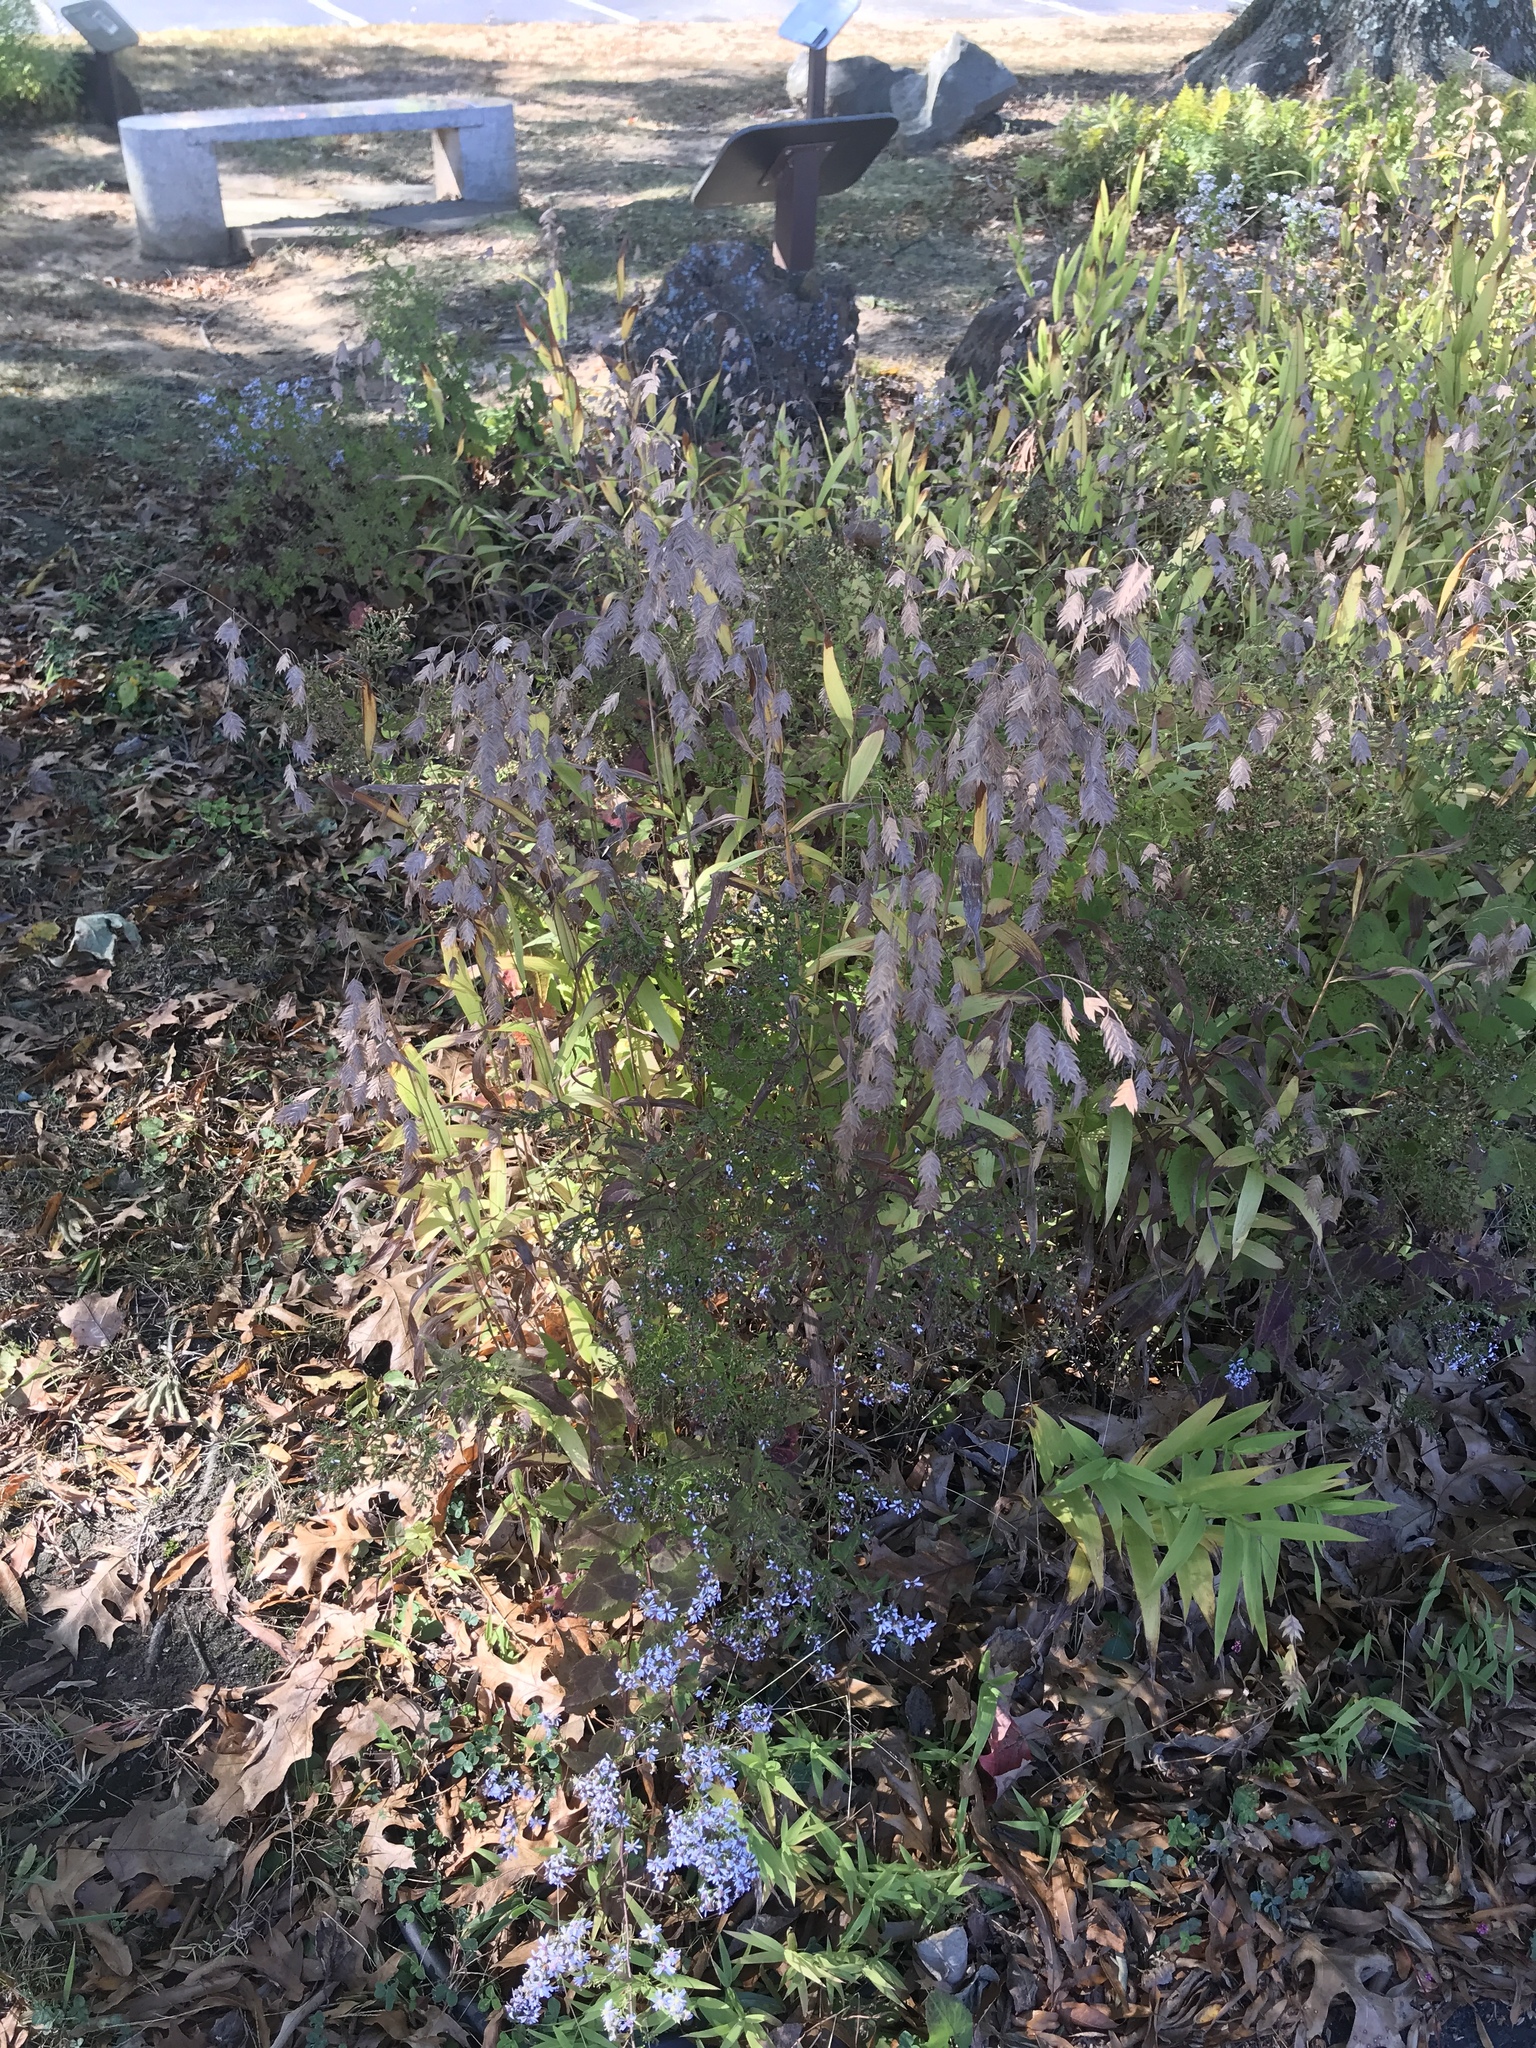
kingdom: Plantae
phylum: Tracheophyta
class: Liliopsida
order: Poales
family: Poaceae
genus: Chasmanthium
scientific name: Chasmanthium latifolium
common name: Broad-leaved chasmanthium
